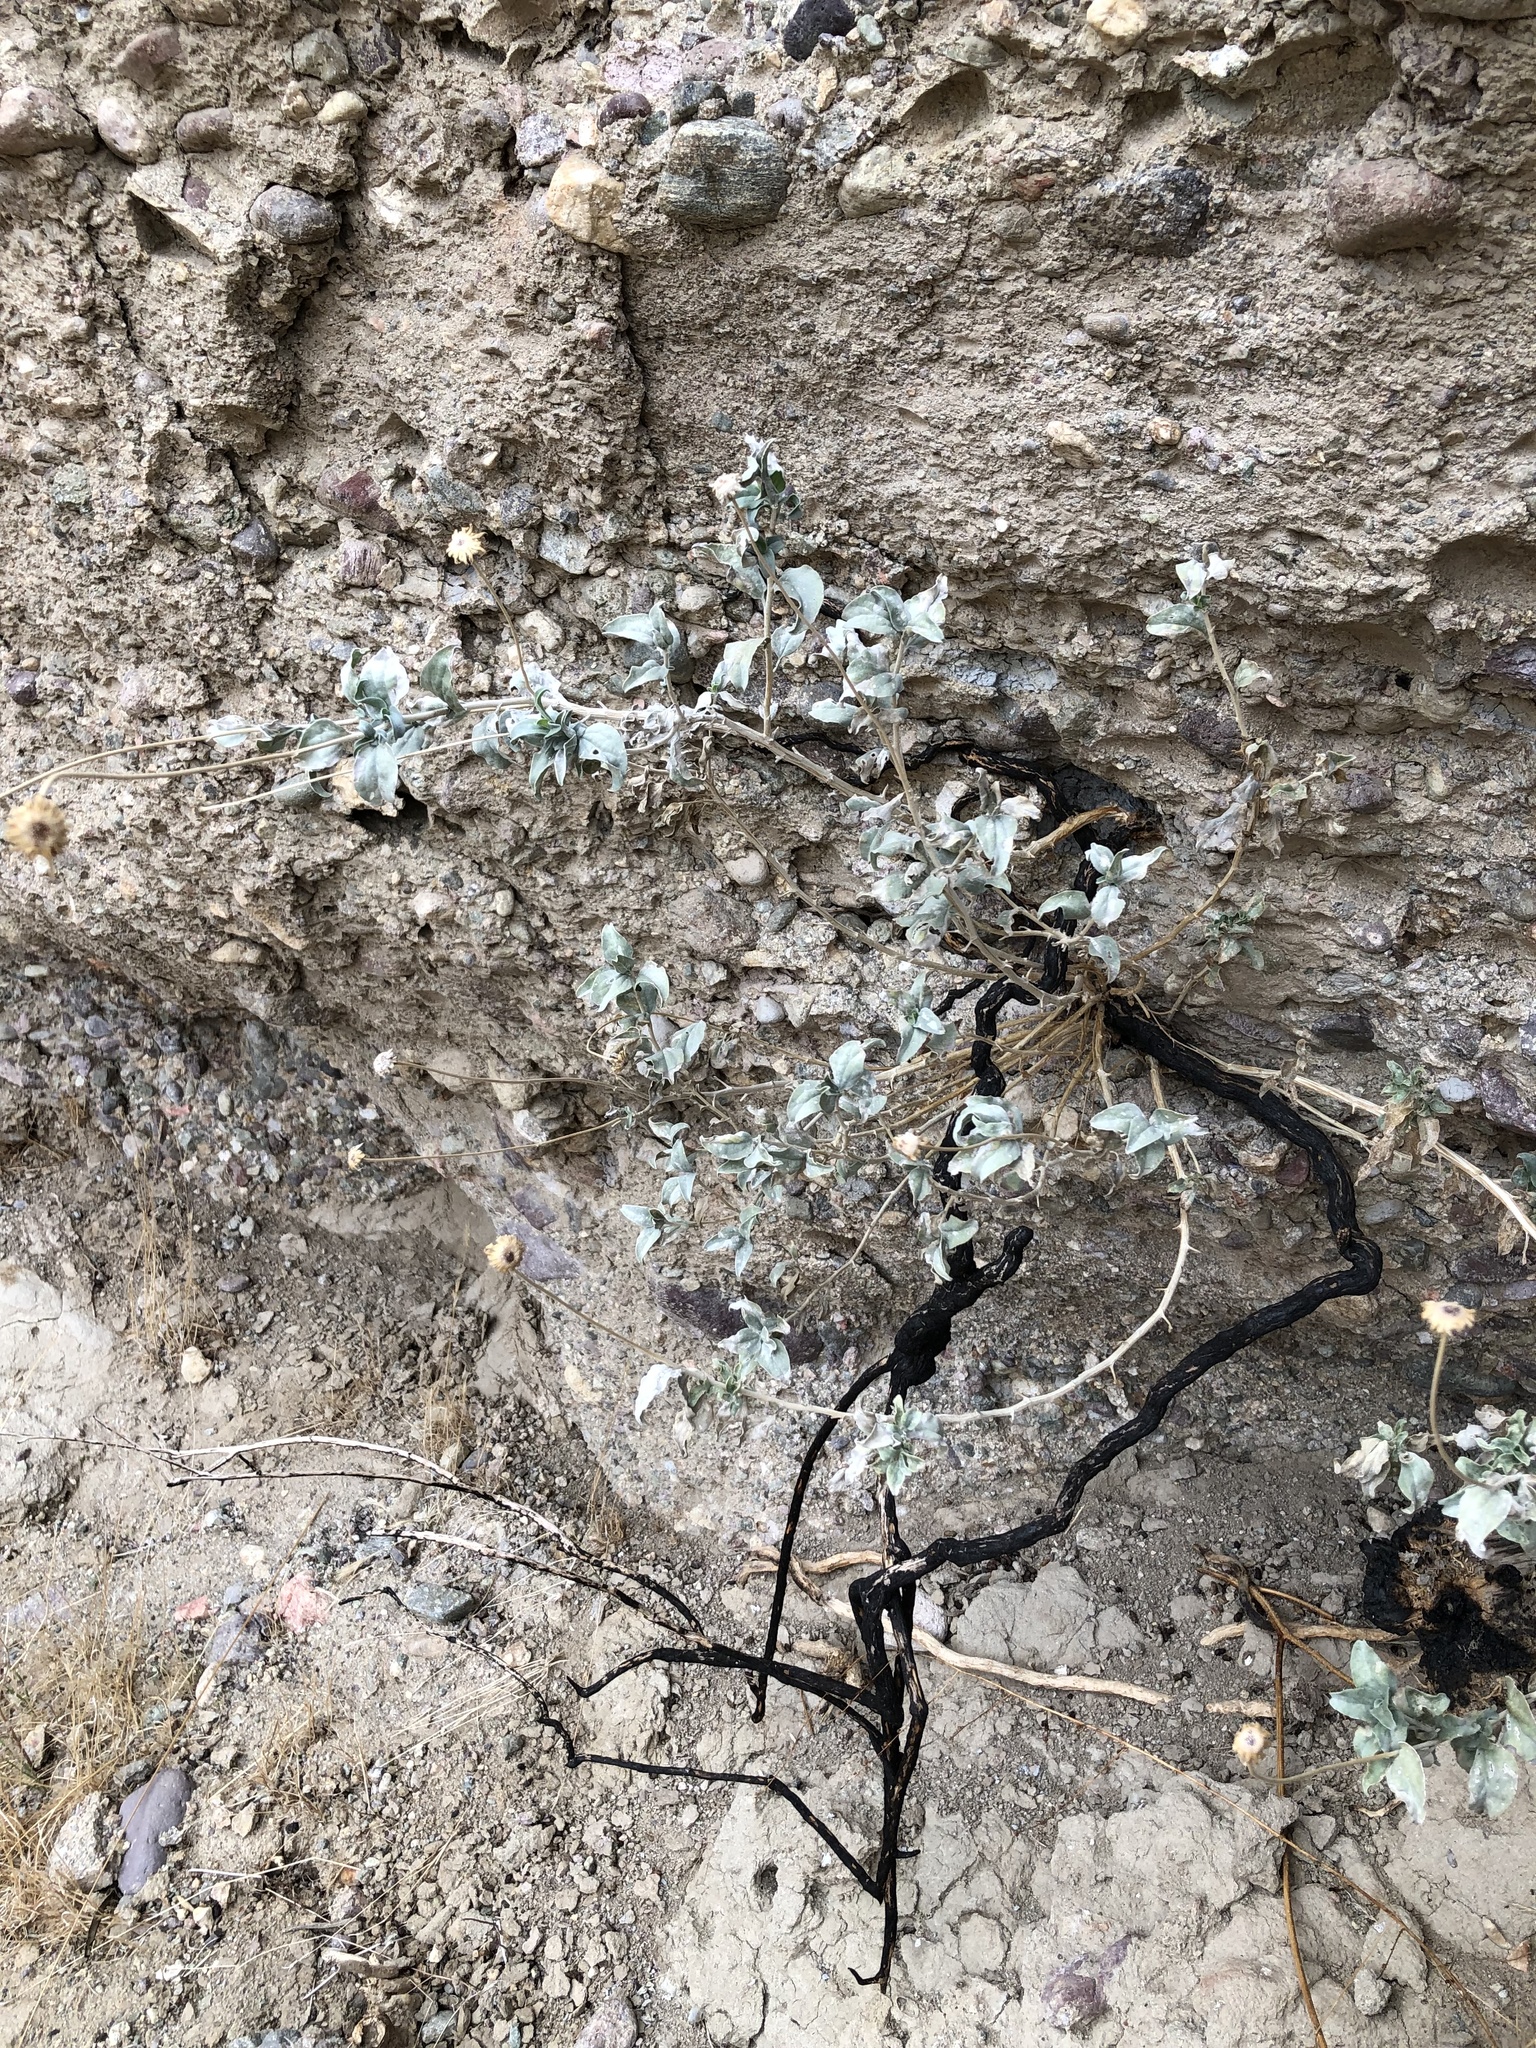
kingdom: Plantae
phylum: Tracheophyta
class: Magnoliopsida
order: Asterales
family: Asteraceae
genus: Encelia
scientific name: Encelia farinosa
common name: Brittlebush
